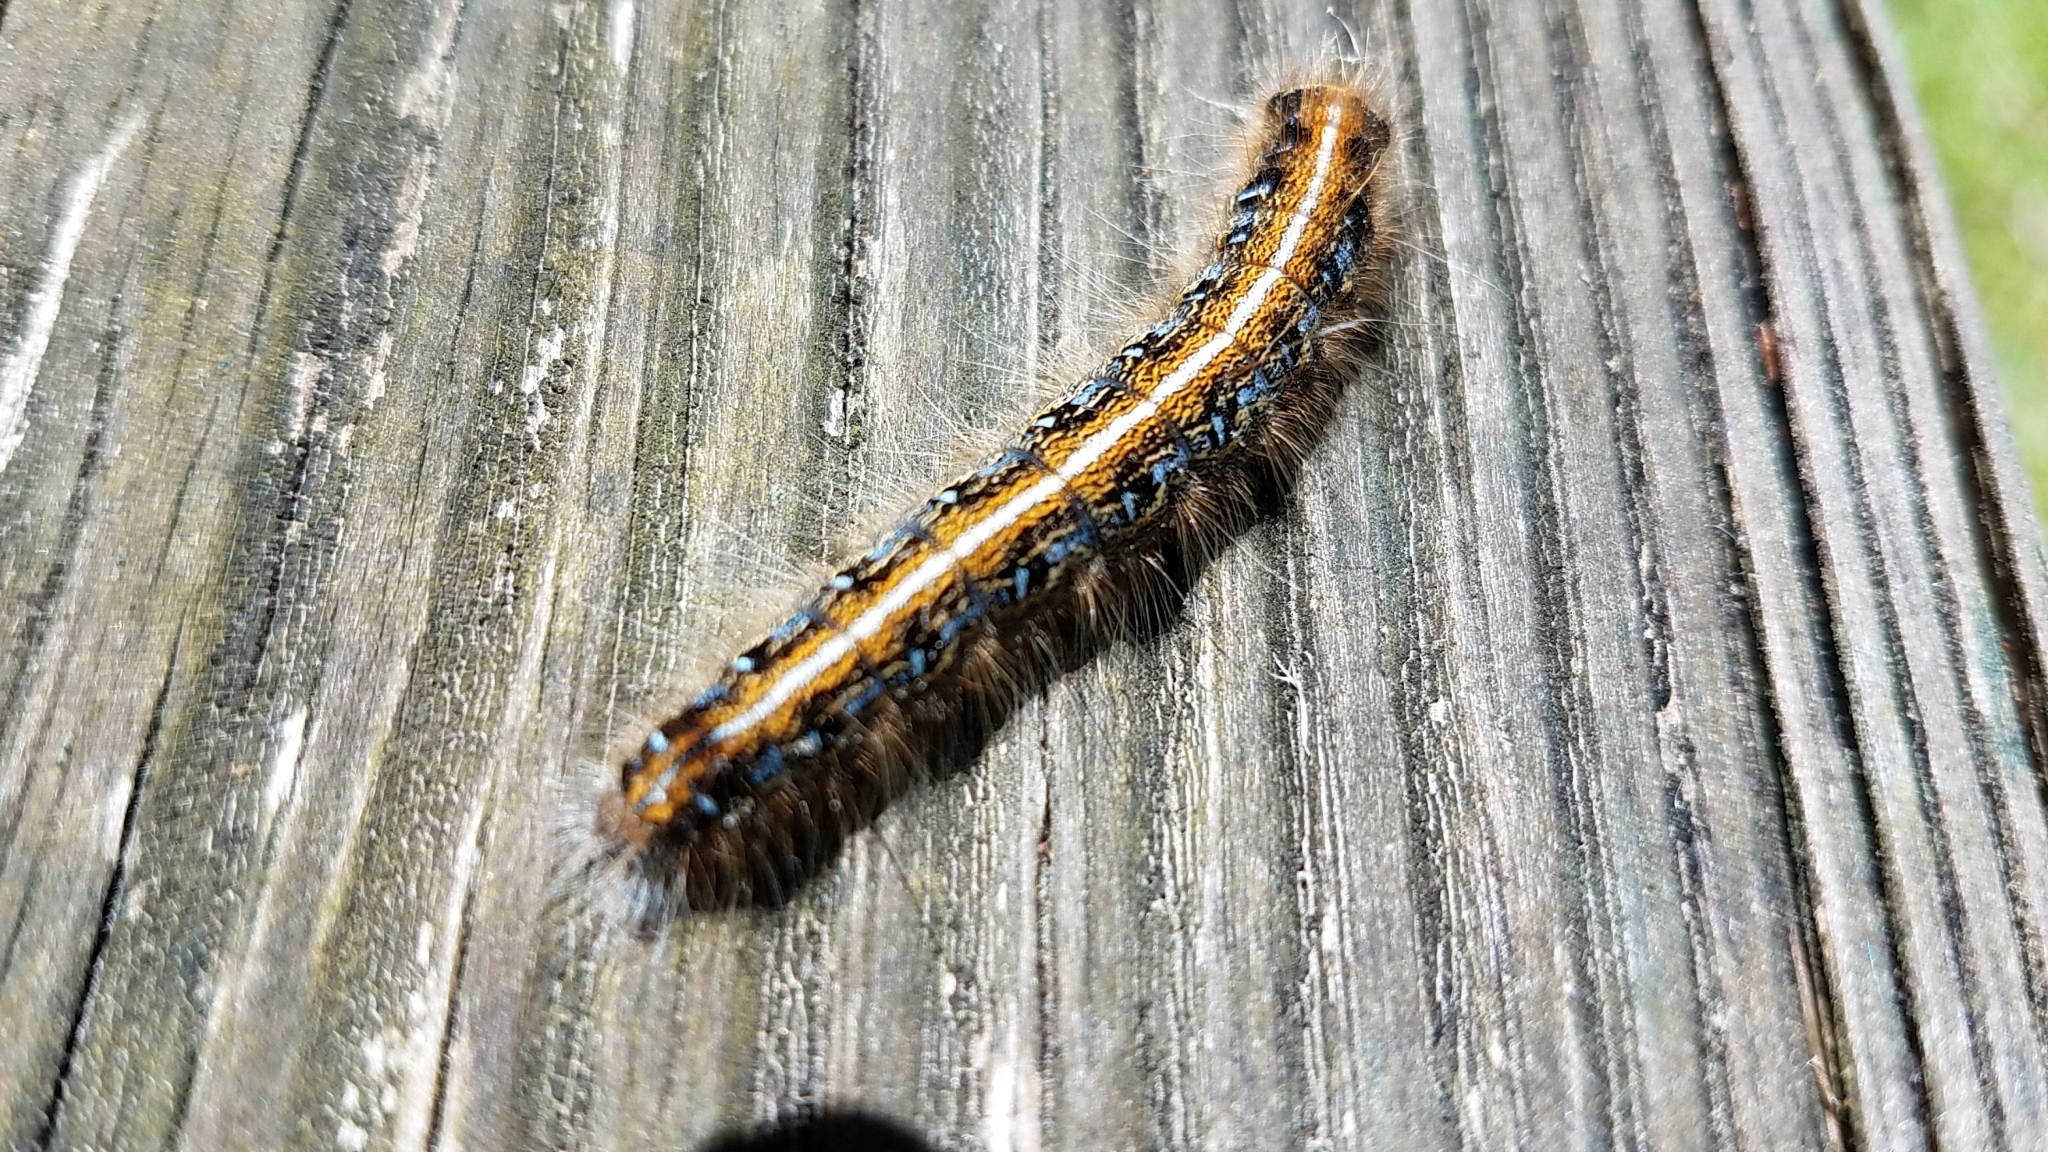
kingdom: Animalia
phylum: Arthropoda
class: Insecta
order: Lepidoptera
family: Lasiocampidae
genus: Malacosoma
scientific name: Malacosoma americana
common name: Eastern tent caterpillar moth
